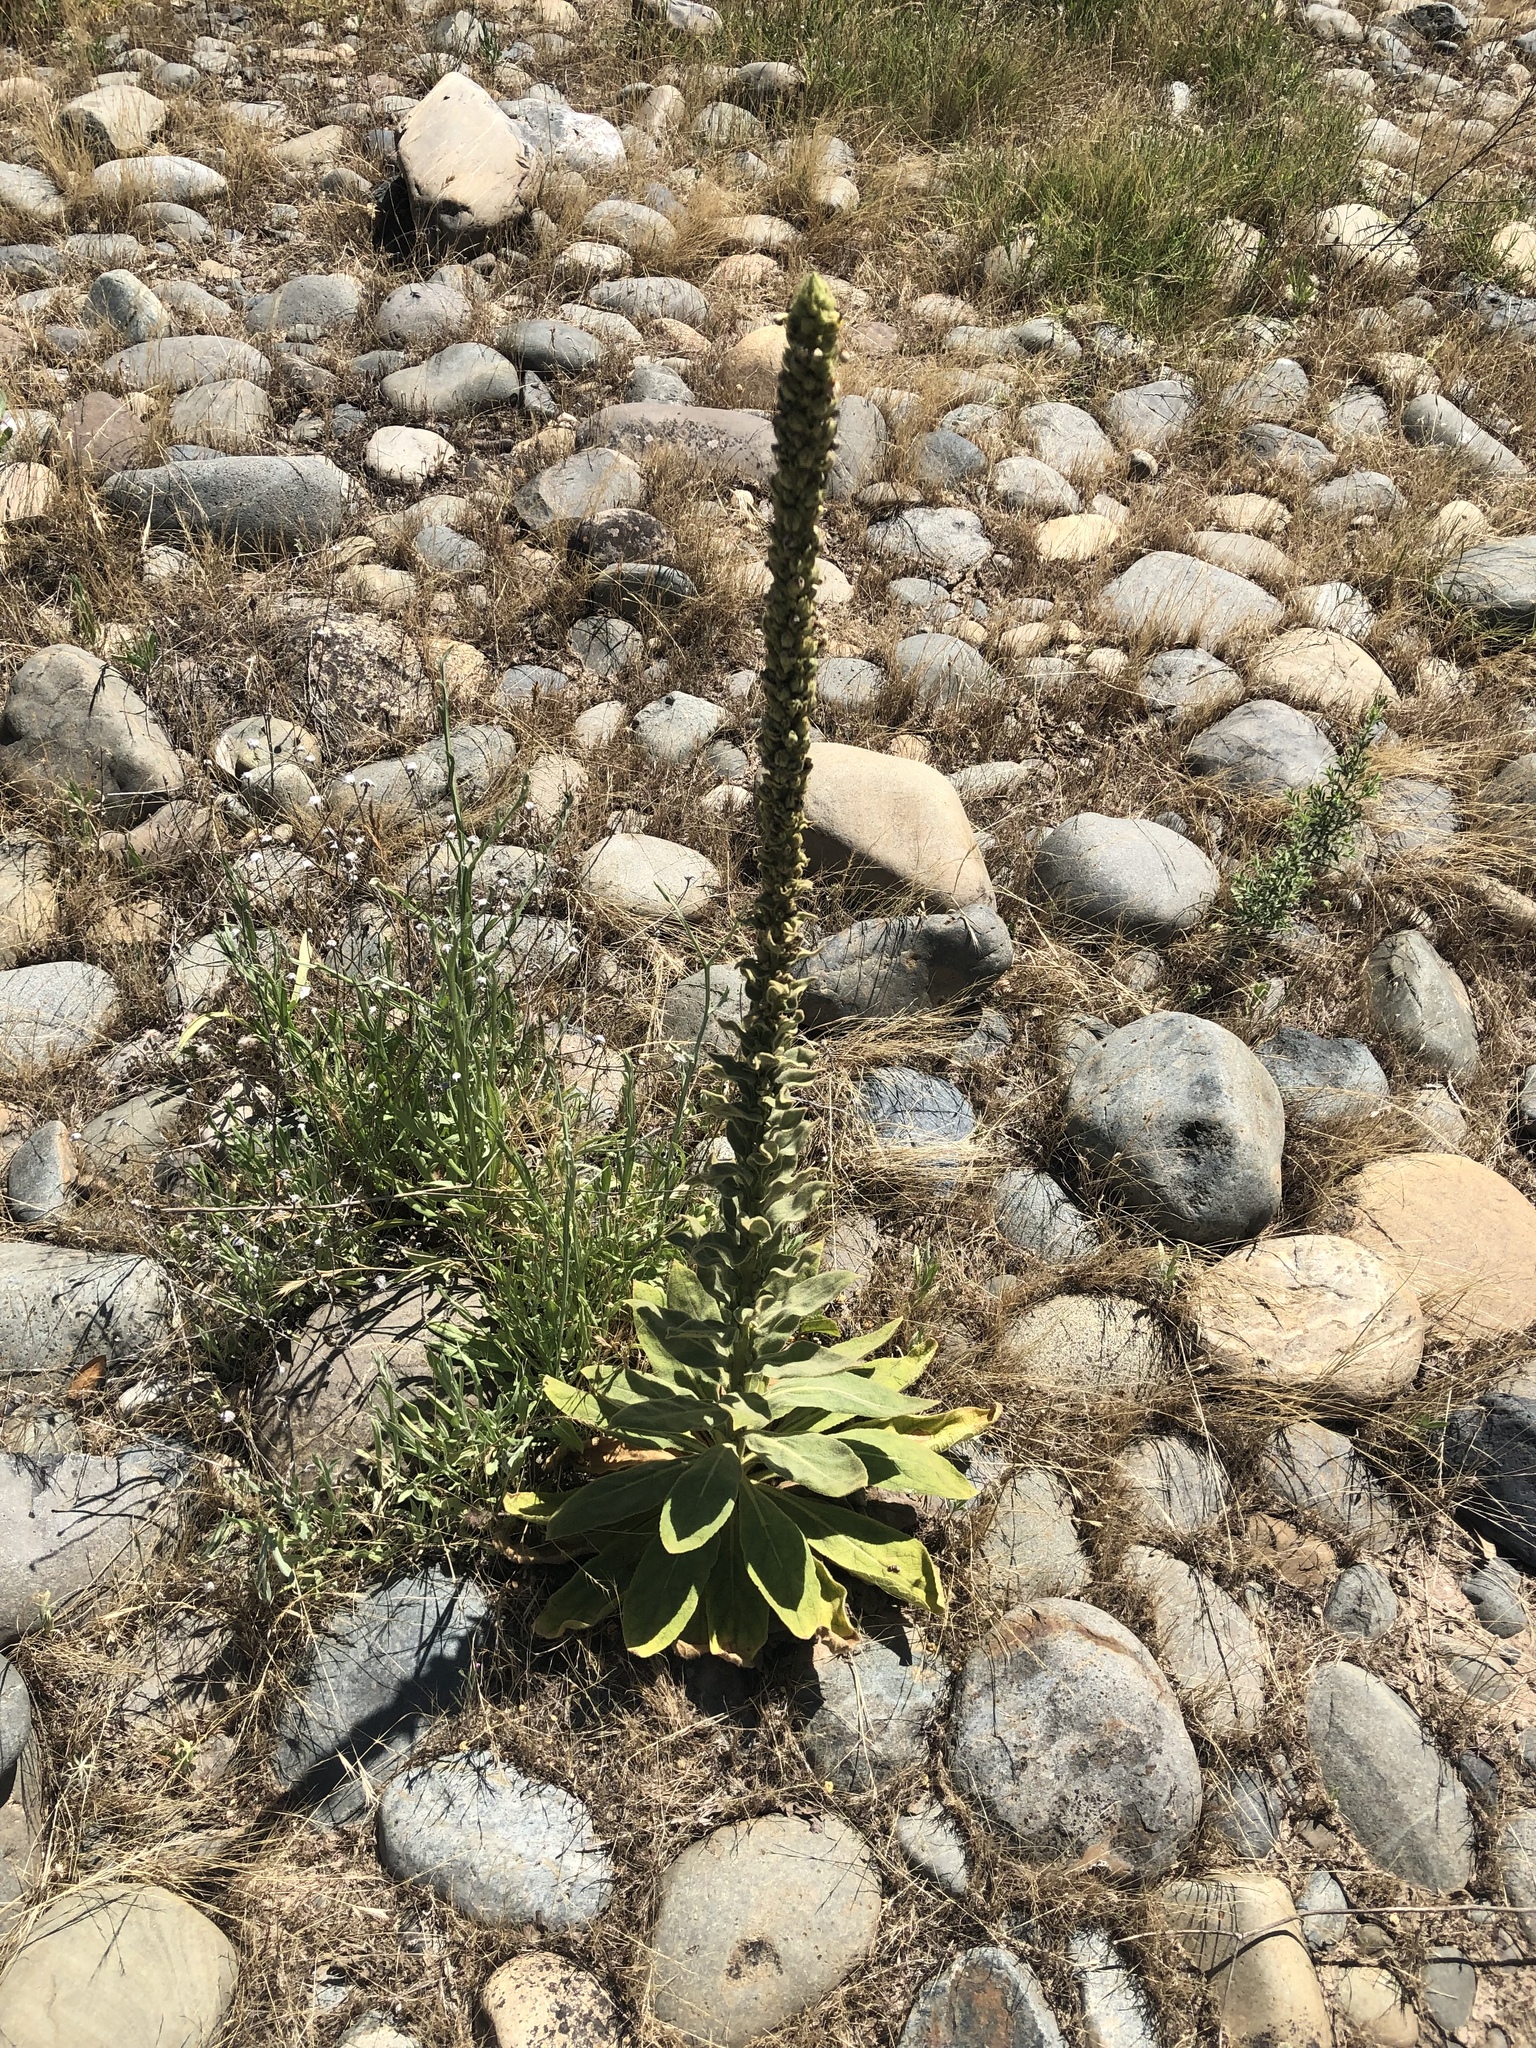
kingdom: Plantae
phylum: Tracheophyta
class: Magnoliopsida
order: Lamiales
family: Scrophulariaceae
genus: Verbascum
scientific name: Verbascum thapsus
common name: Common mullein
